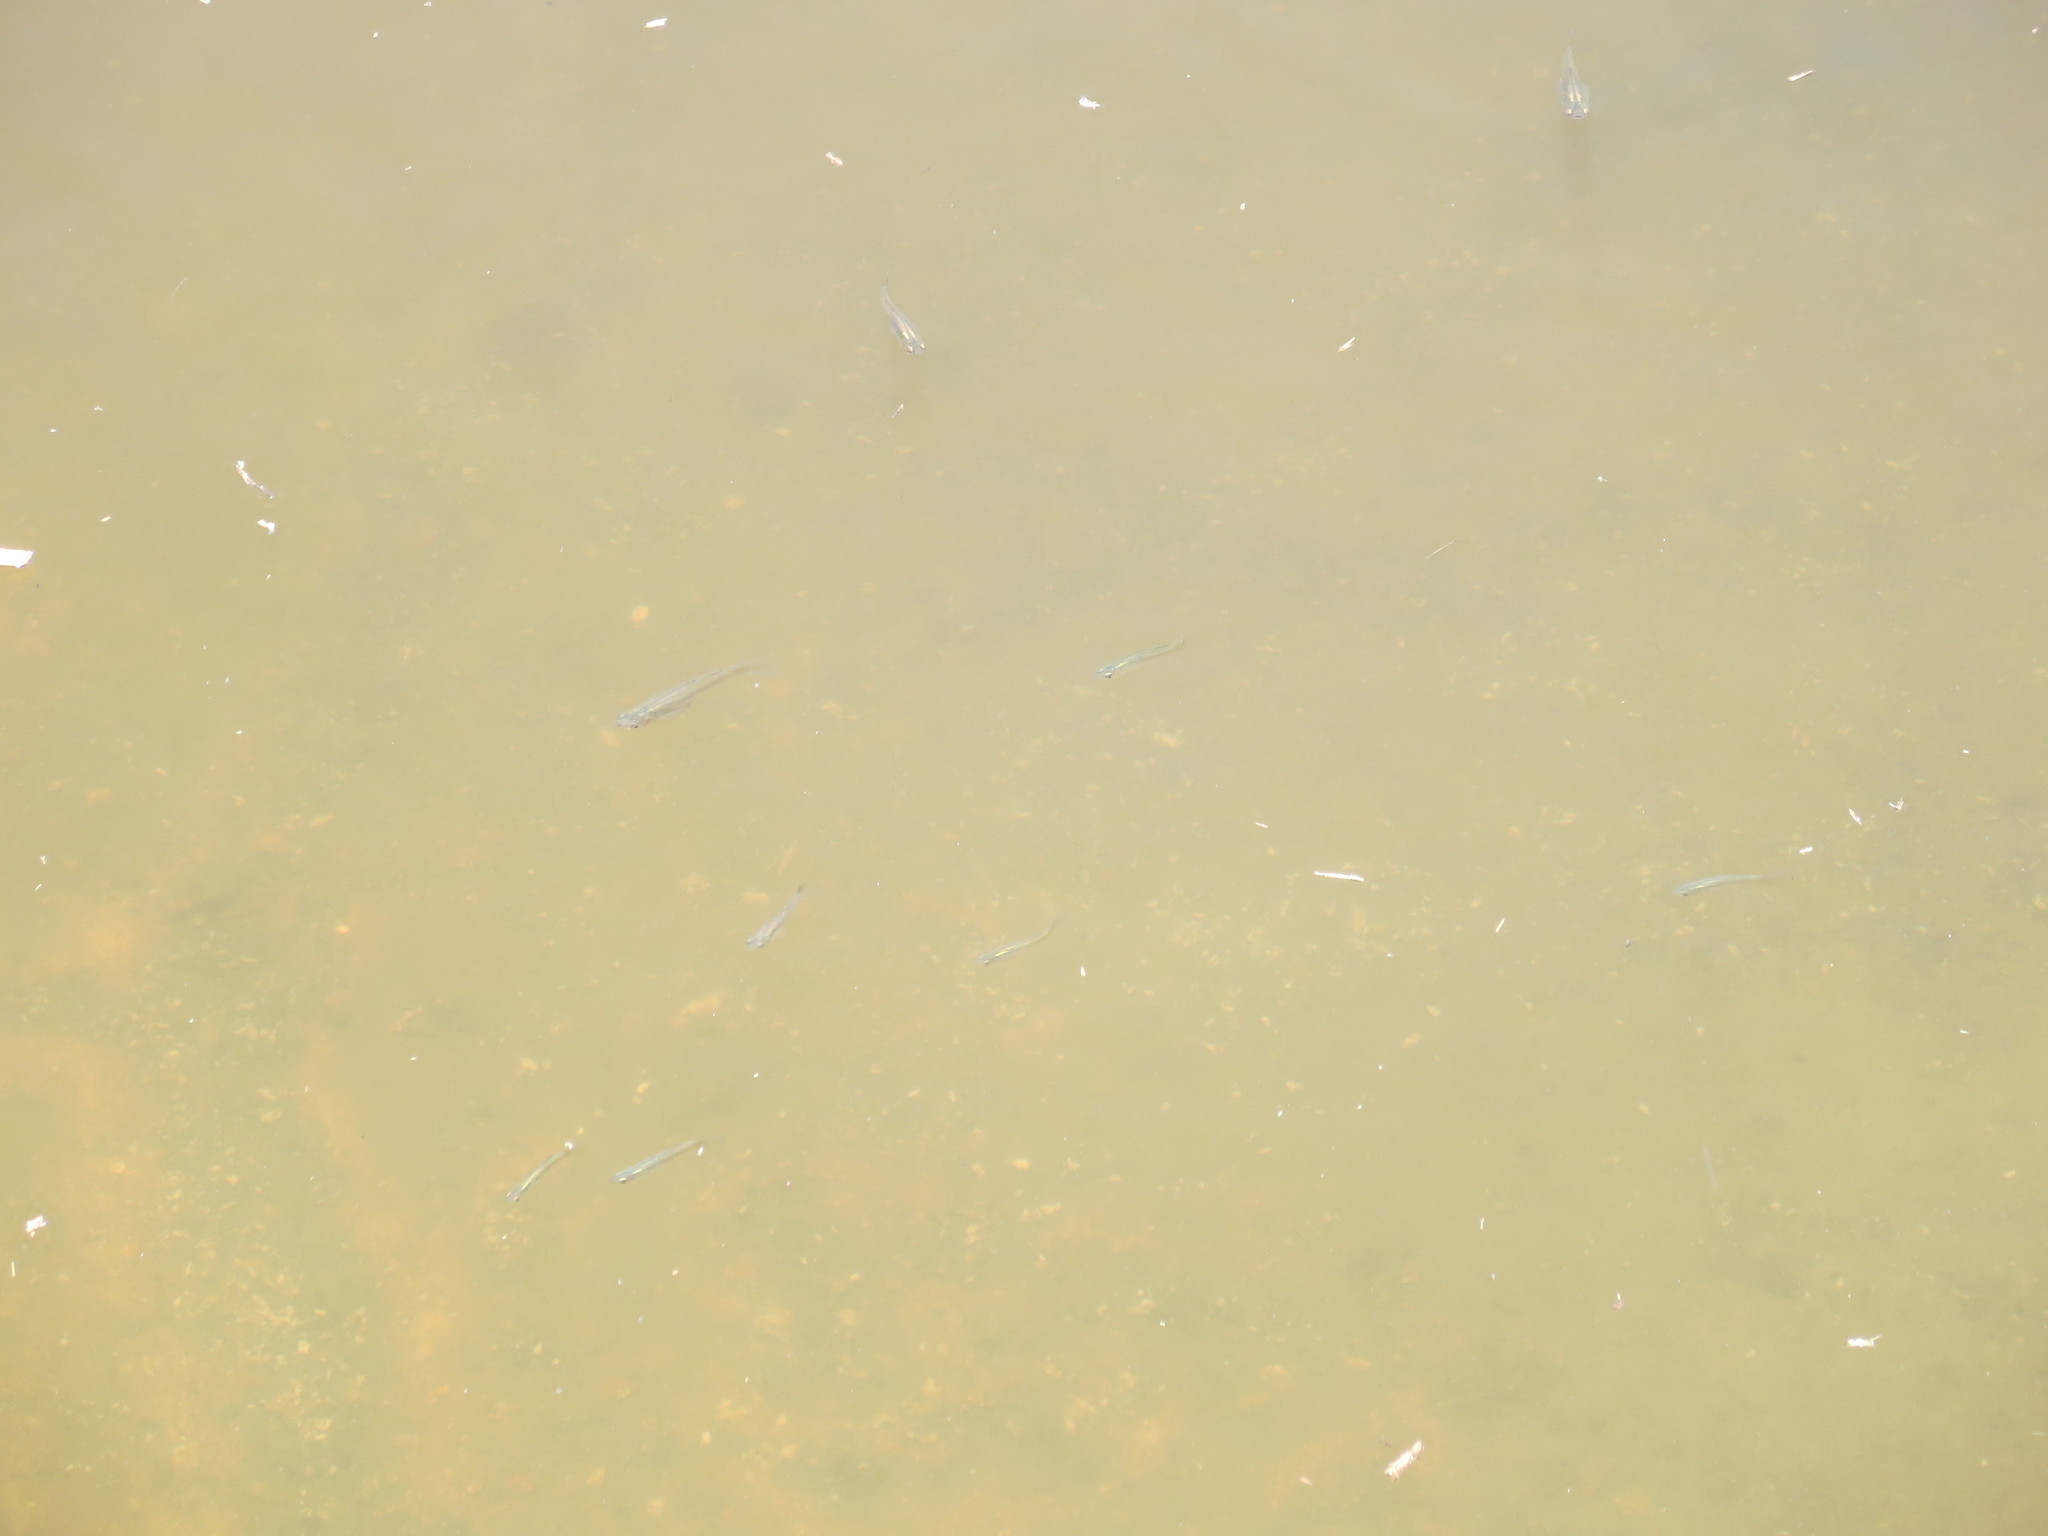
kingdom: Animalia
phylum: Chordata
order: Cyprinodontiformes
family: Poeciliidae
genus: Gambusia
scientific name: Gambusia holbrooki
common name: Eastern mosquitofish
